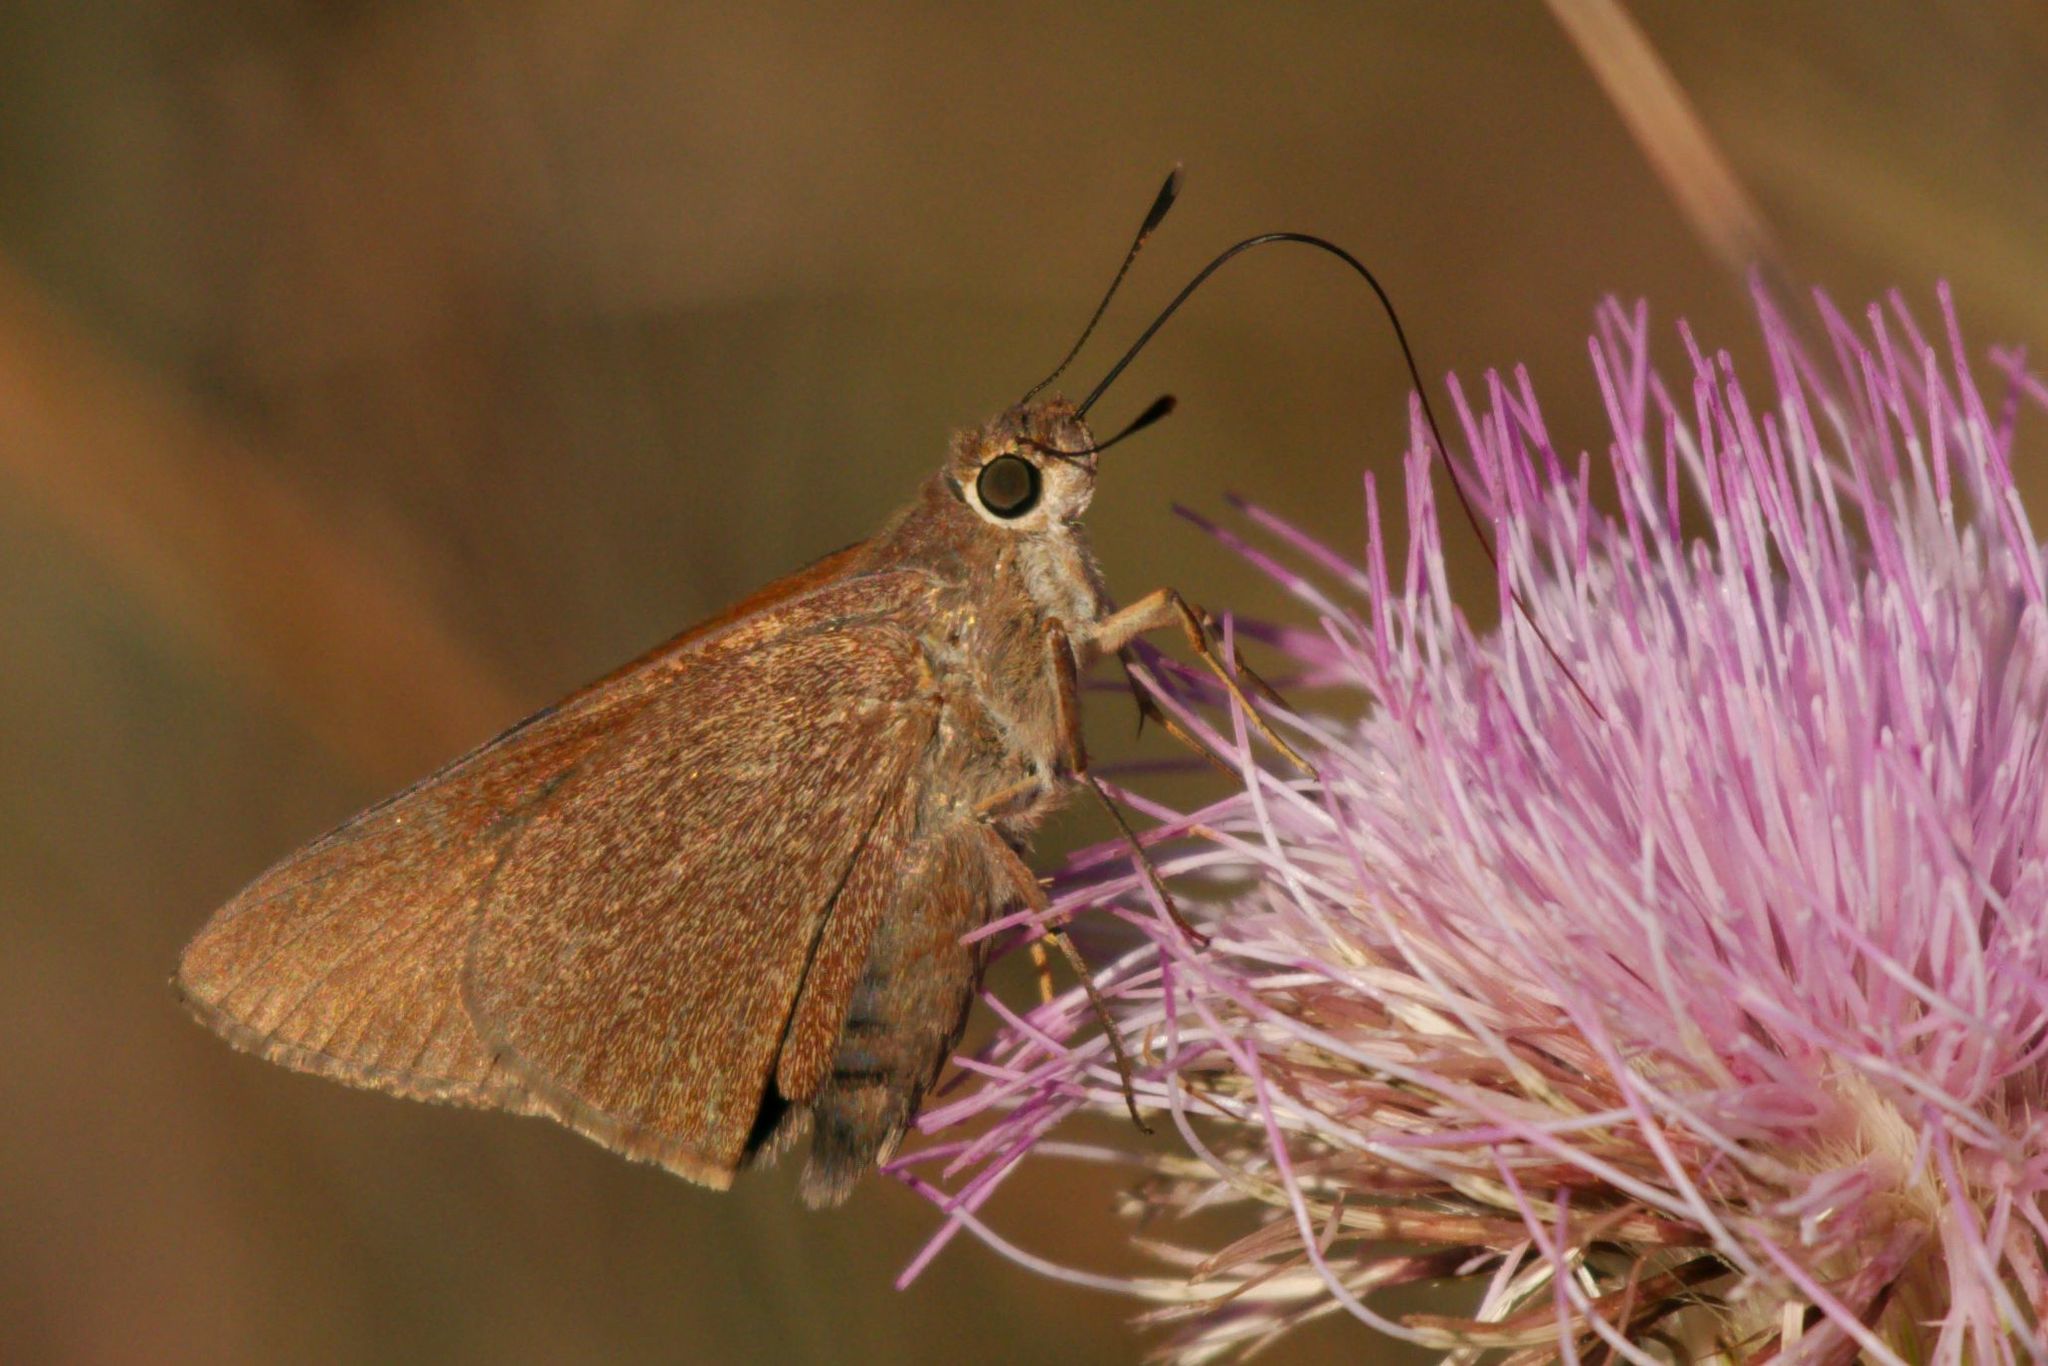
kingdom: Animalia
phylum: Arthropoda
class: Insecta
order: Lepidoptera
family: Hesperiidae
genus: Asbolis
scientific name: Asbolis capucinus
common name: Monk skipper
